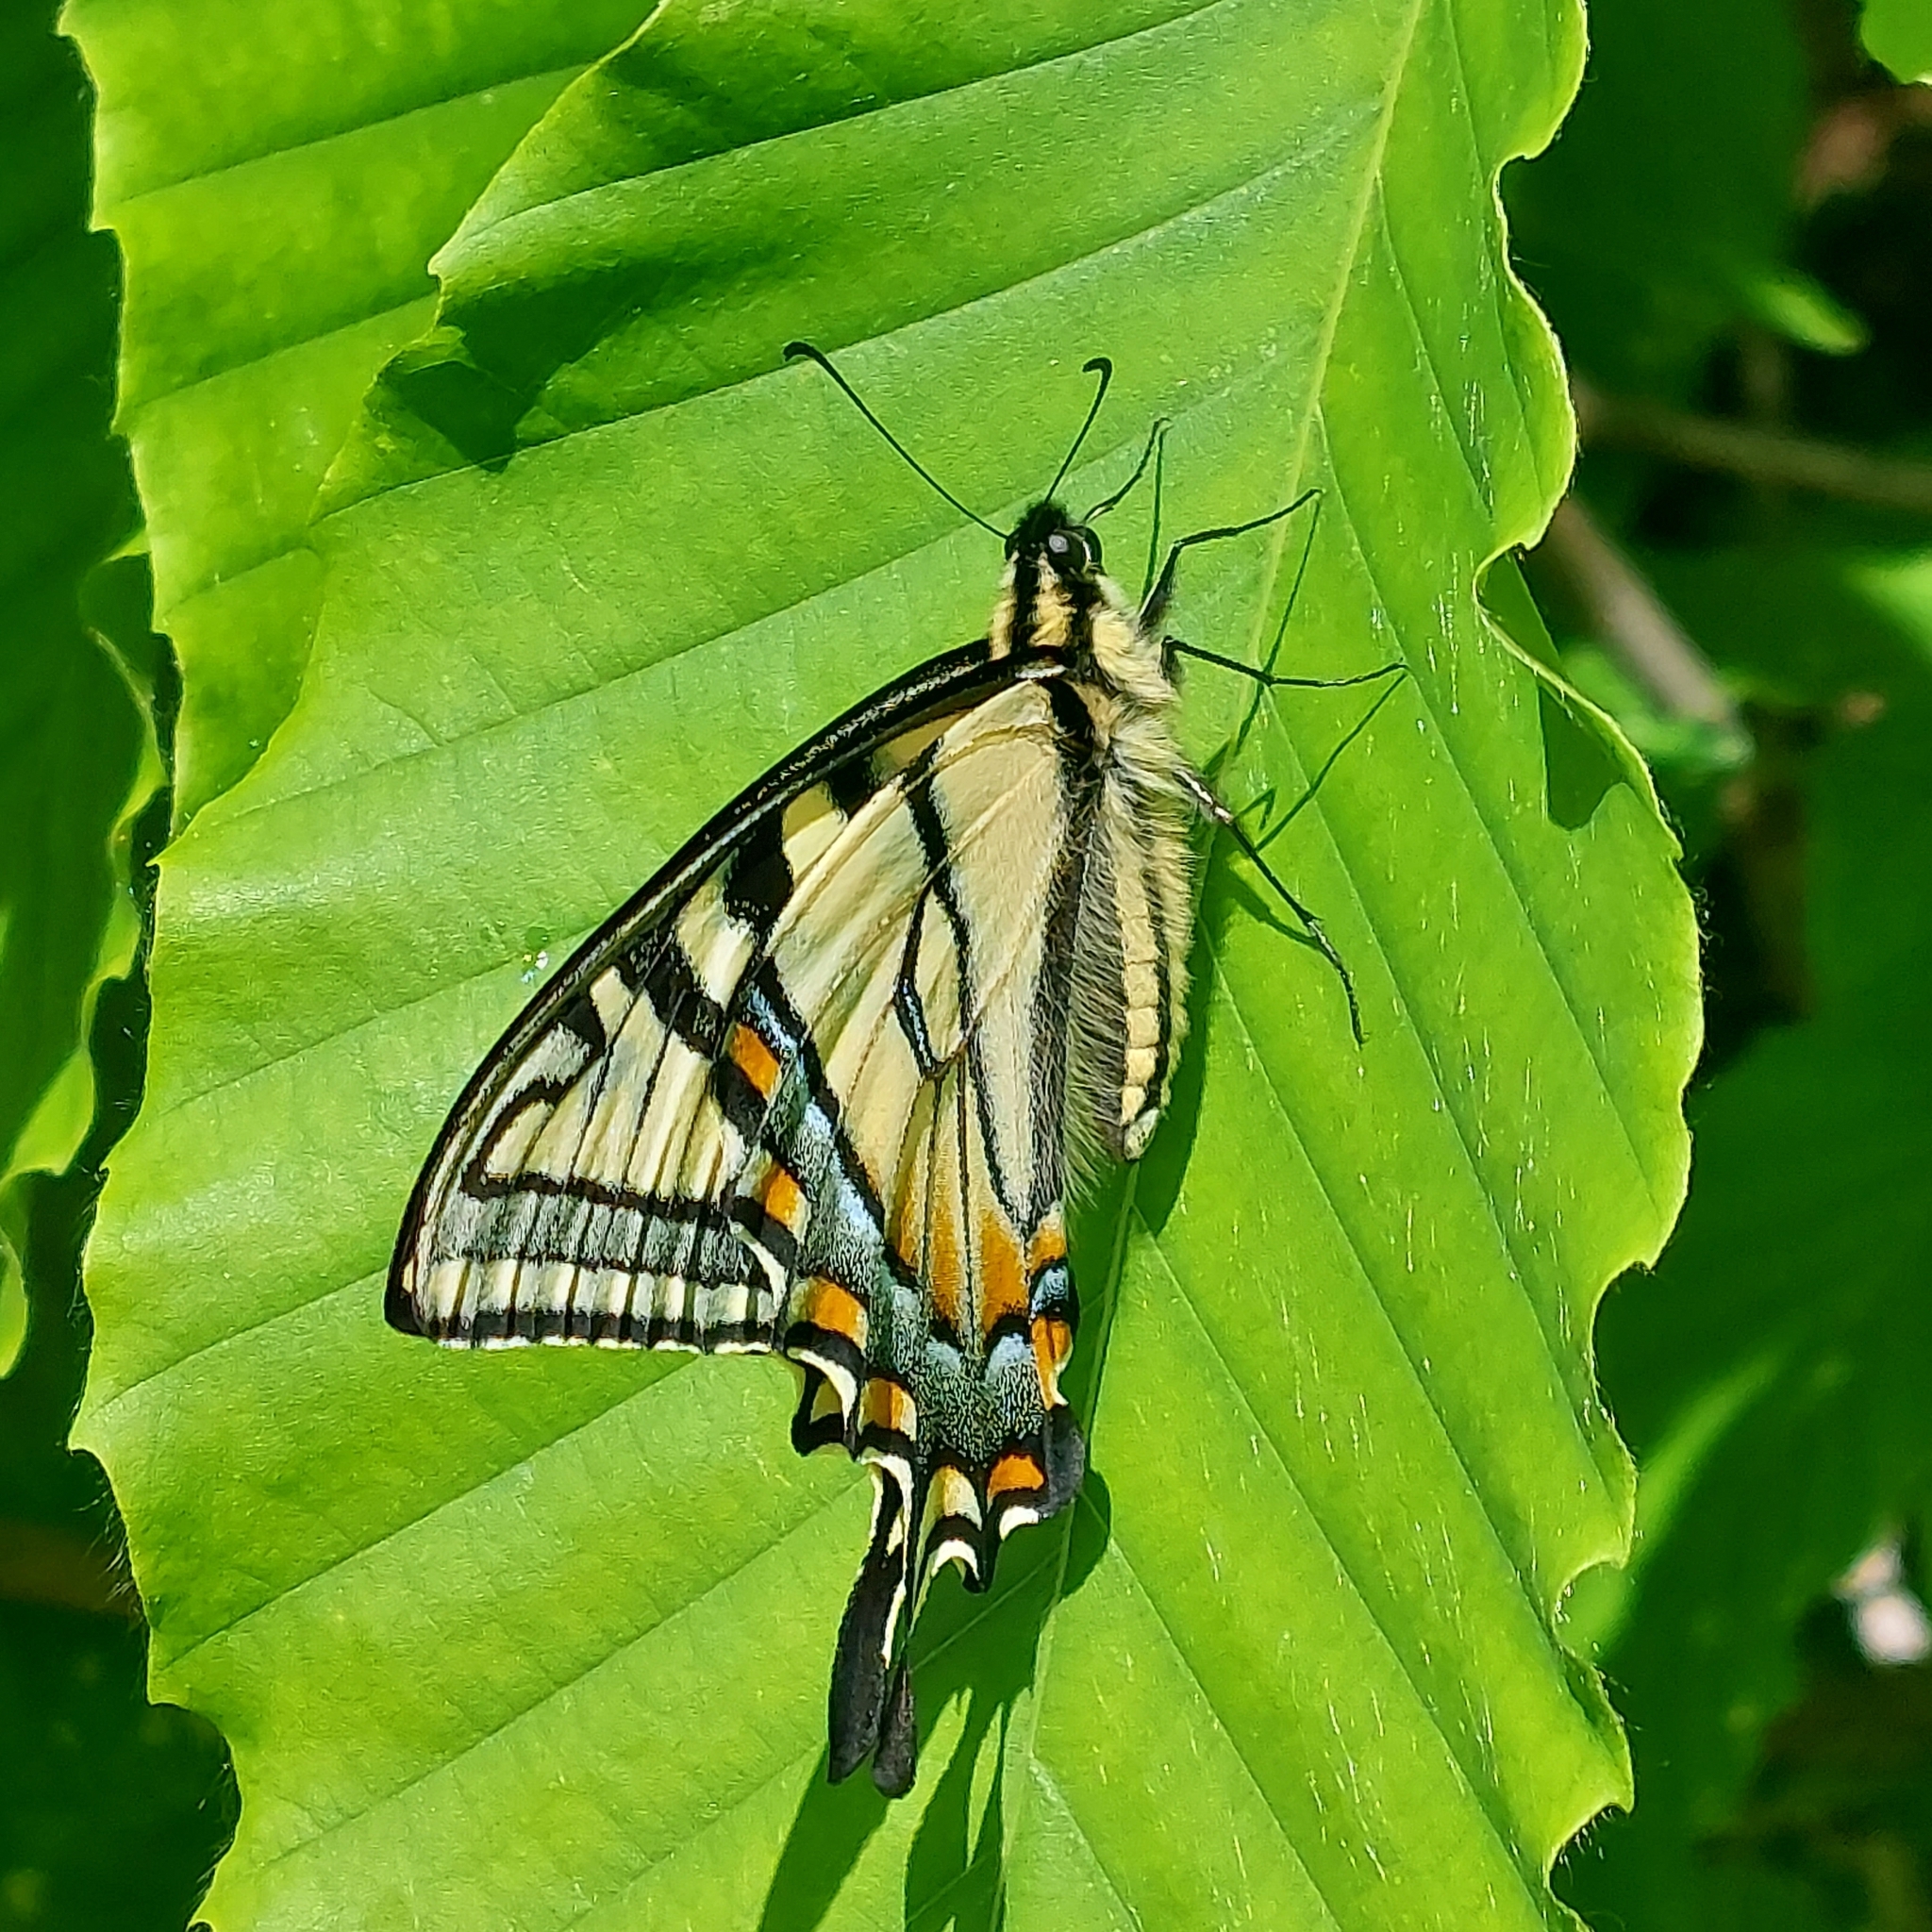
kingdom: Animalia
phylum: Arthropoda
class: Insecta
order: Lepidoptera
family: Papilionidae
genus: Papilio
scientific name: Papilio canadensis
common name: Canadian tiger swallowtail
